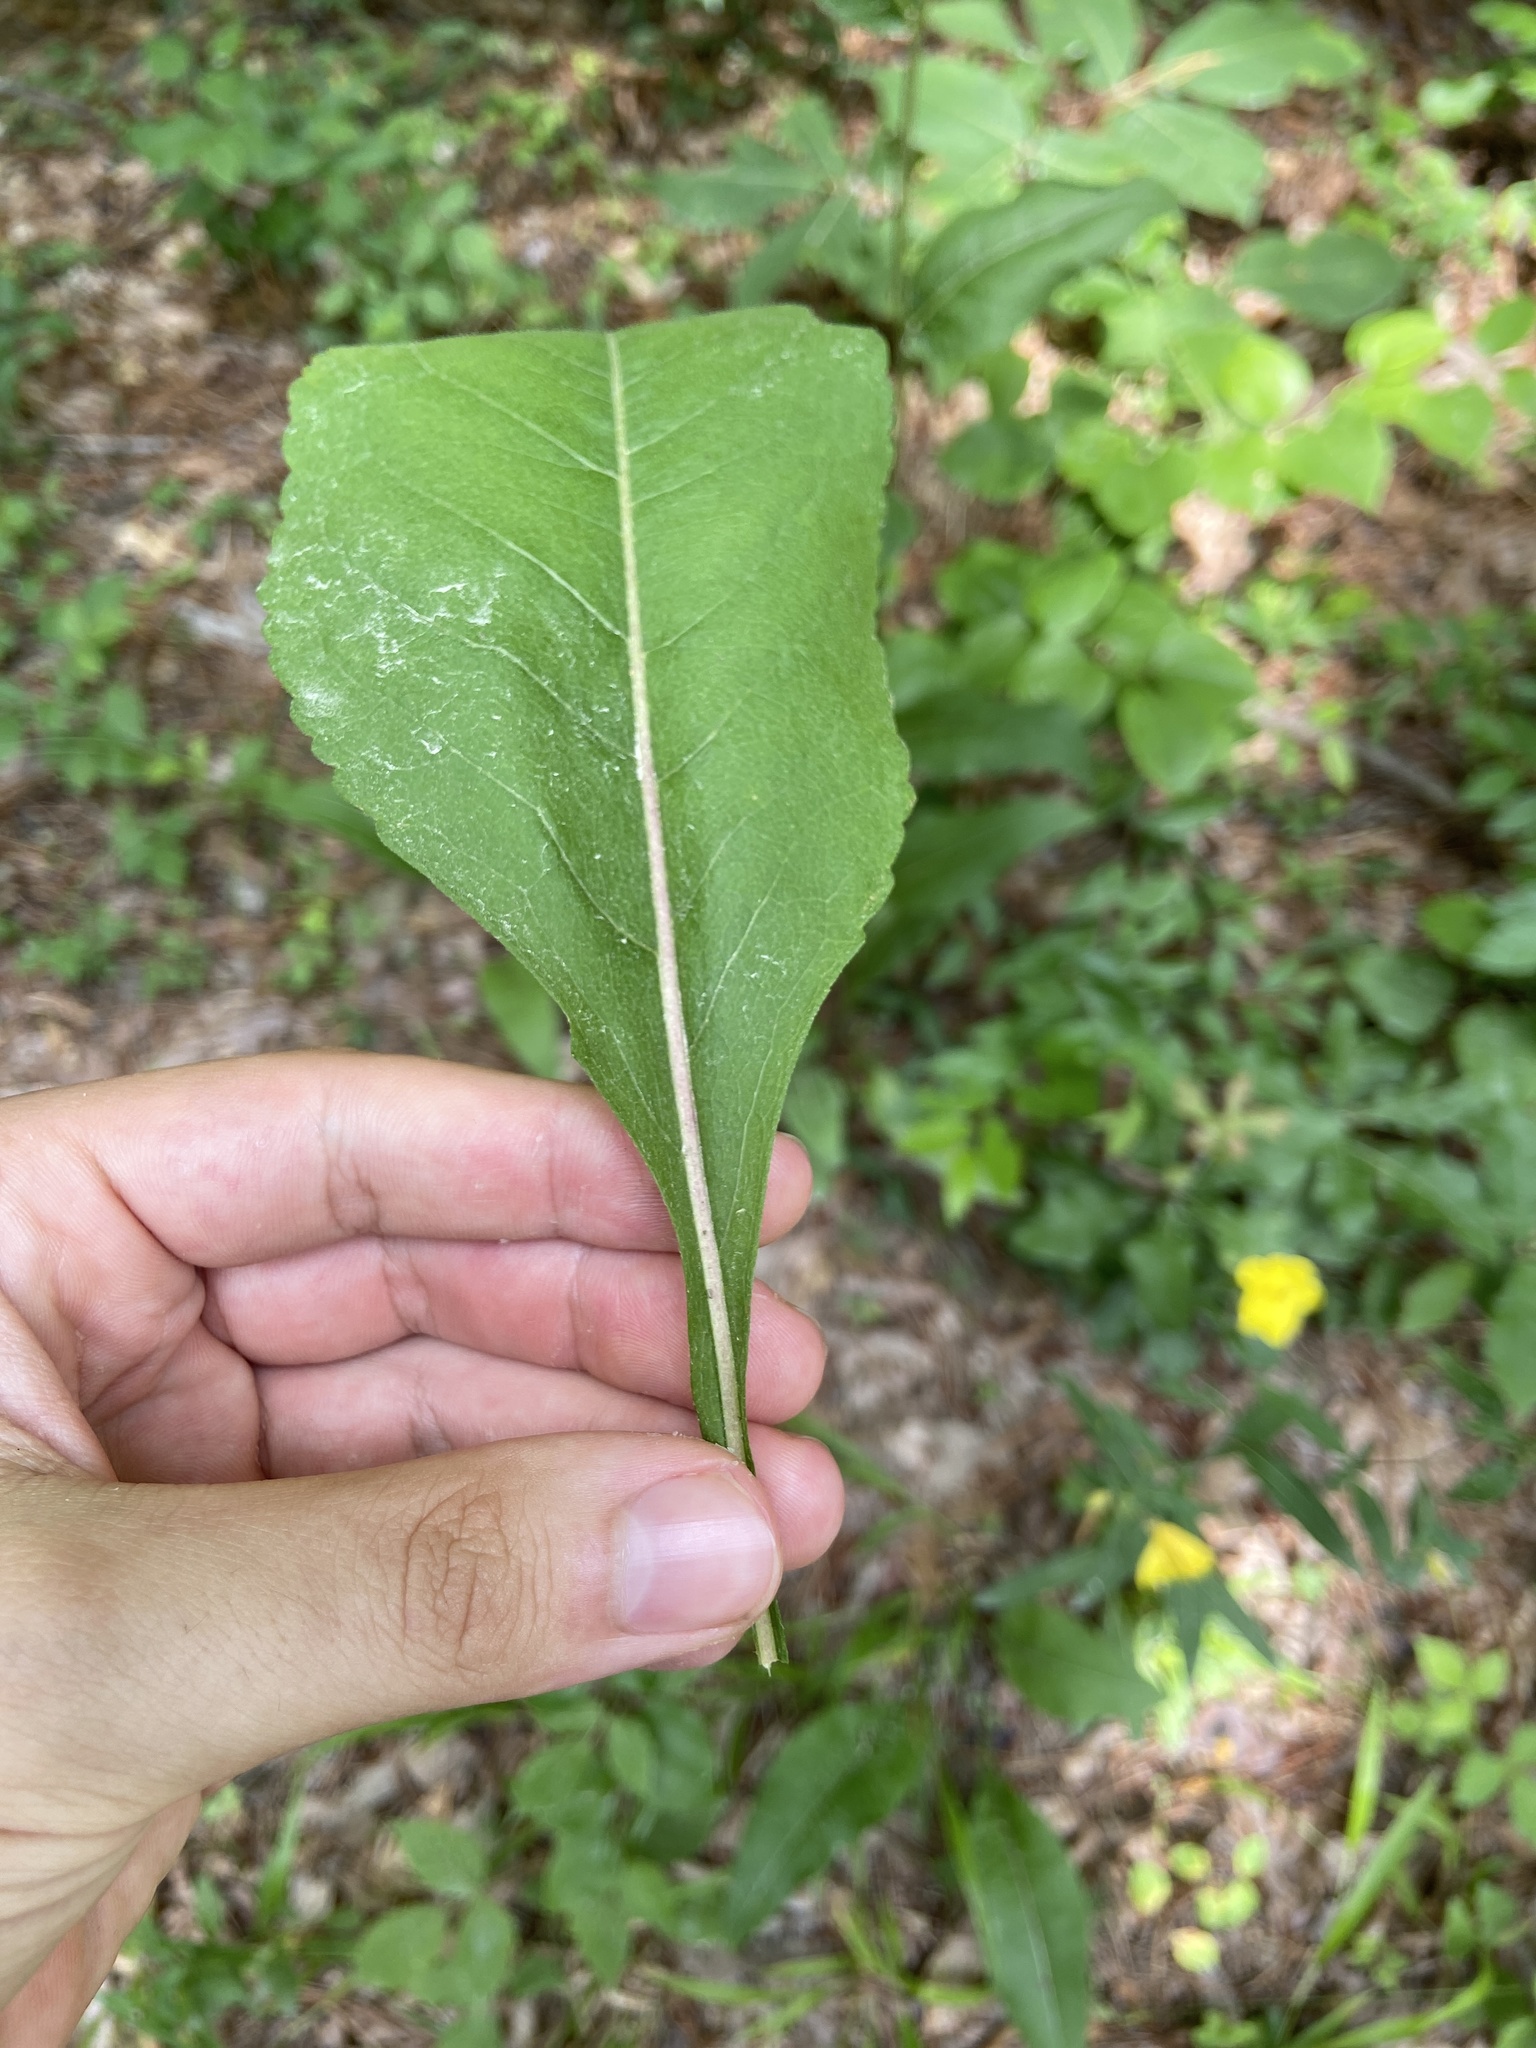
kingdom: Plantae
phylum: Tracheophyta
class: Magnoliopsida
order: Asterales
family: Asteraceae
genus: Parthenium
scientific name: Parthenium integrifolium
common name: American feverfew
